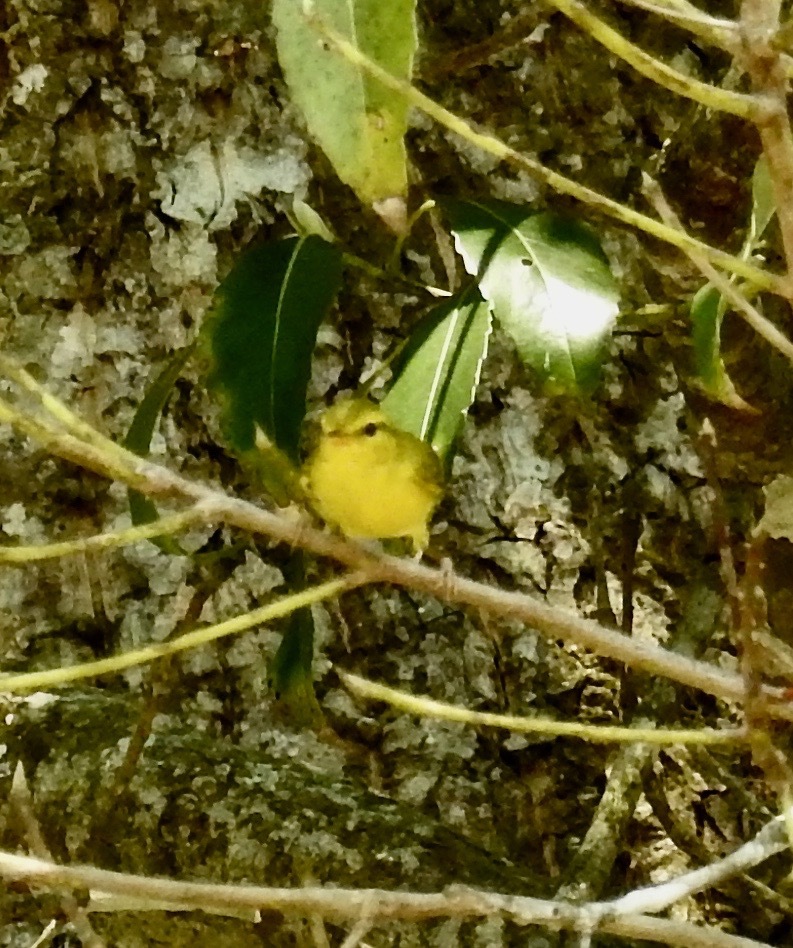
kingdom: Animalia
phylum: Chordata
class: Aves
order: Passeriformes
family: Phylloscopidae
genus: Phylloscopus
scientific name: Phylloscopus hainanus
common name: Hainan leaf warbler
